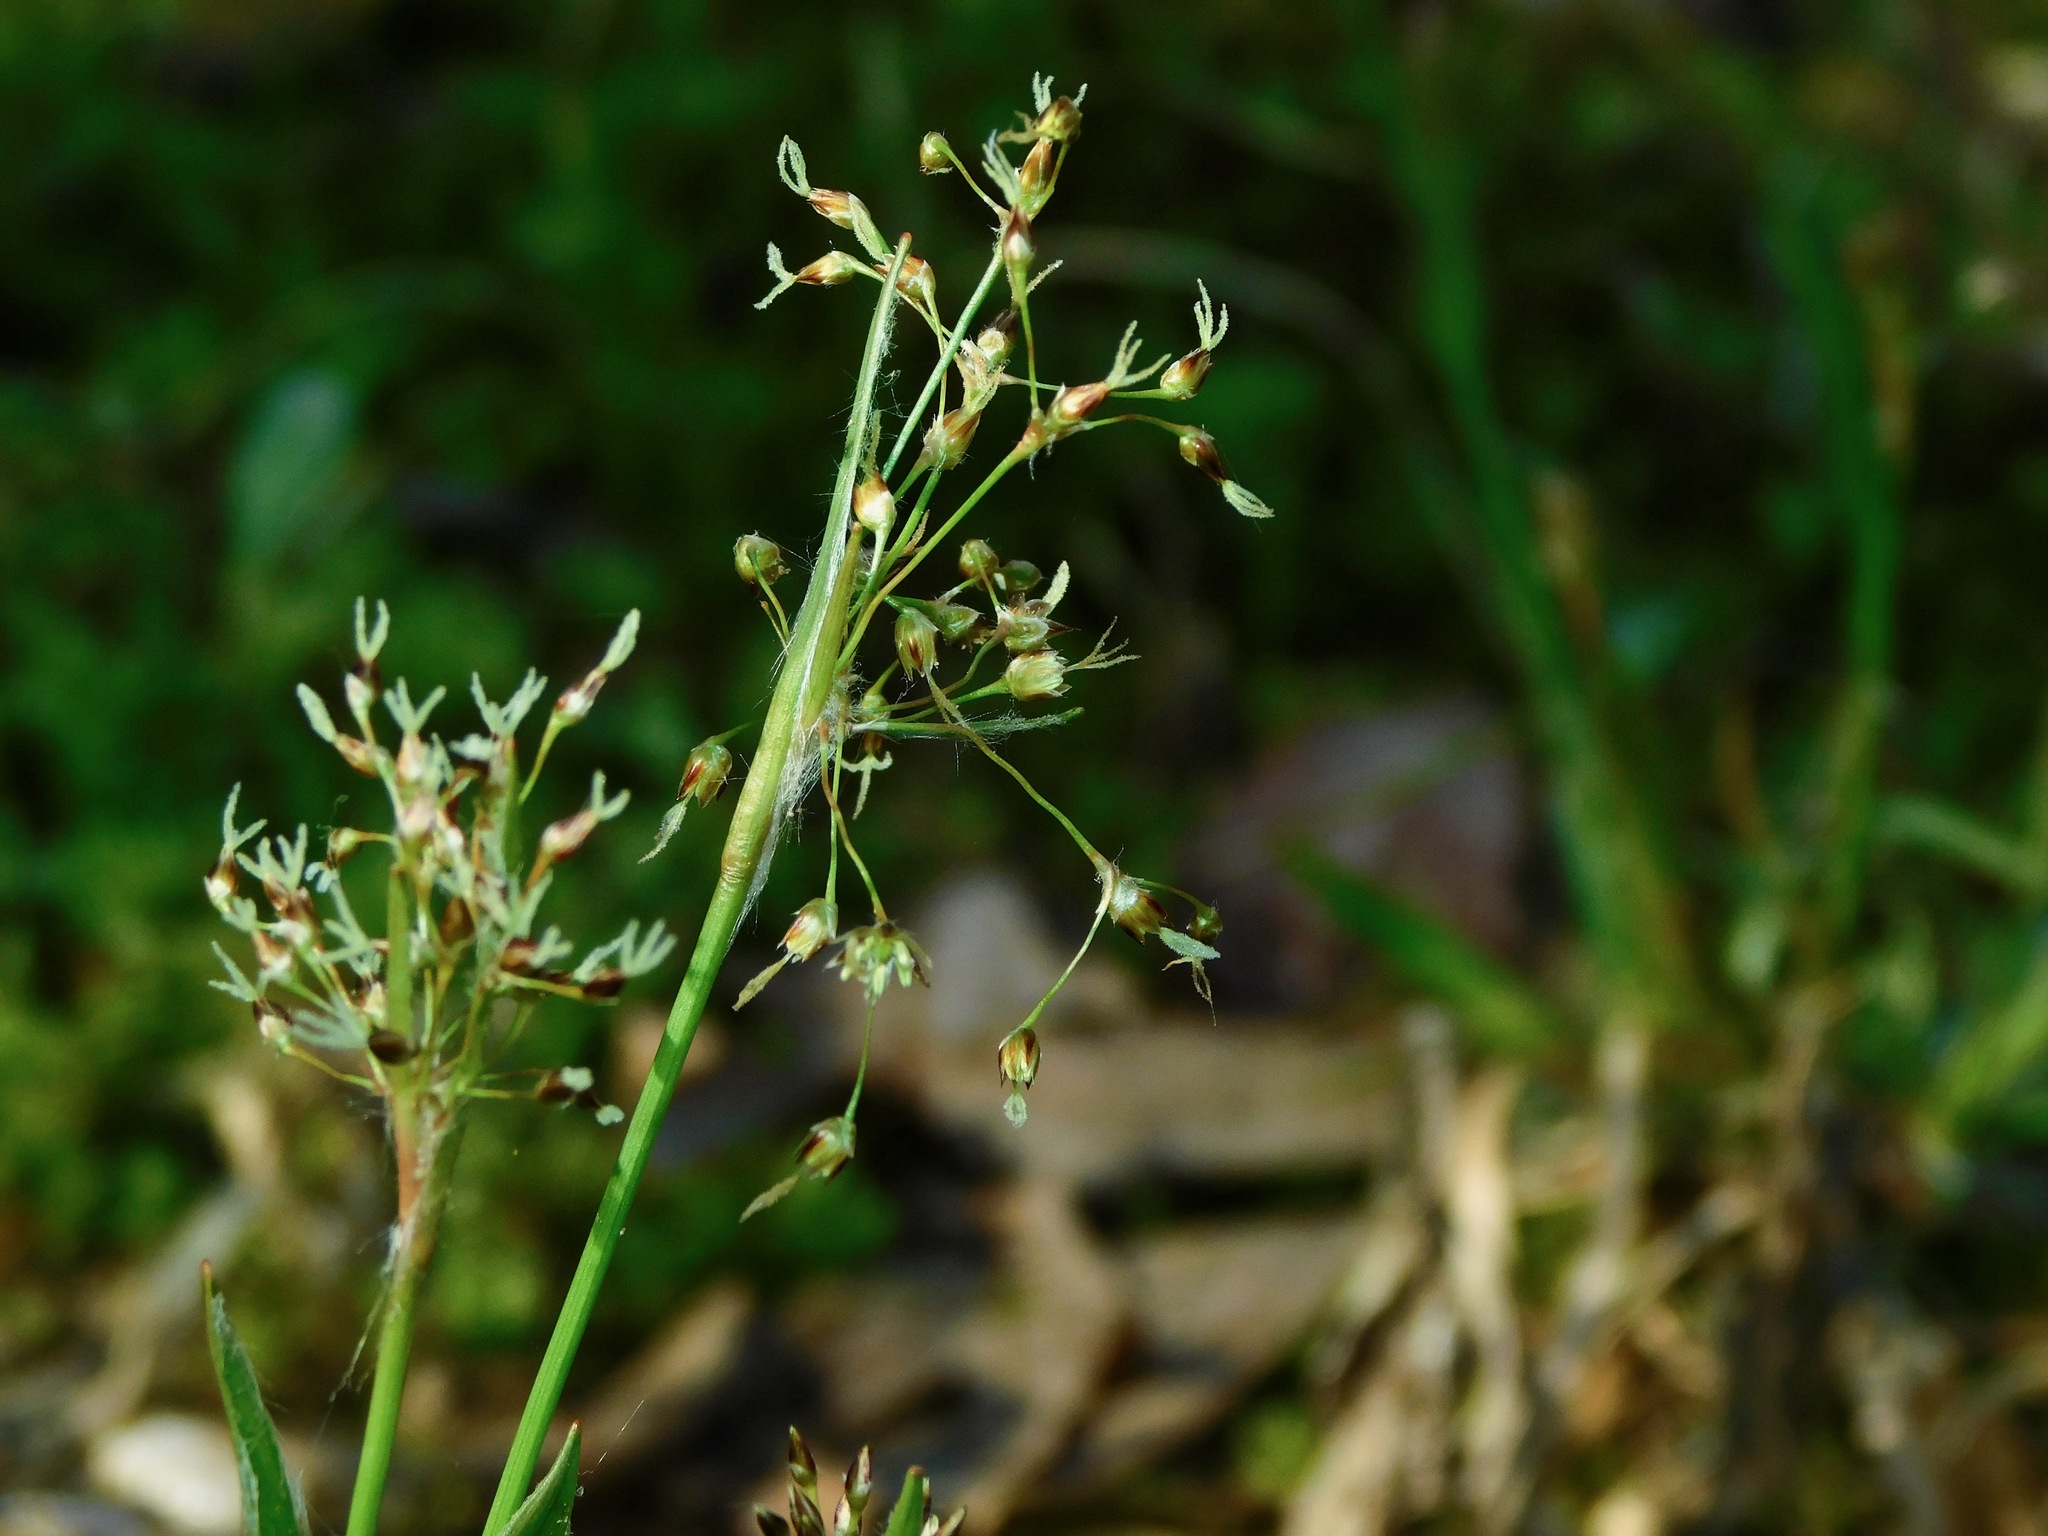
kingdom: Plantae
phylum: Tracheophyta
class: Liliopsida
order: Poales
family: Juncaceae
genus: Luzula
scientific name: Luzula acuminata
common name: Hairy woodrush
